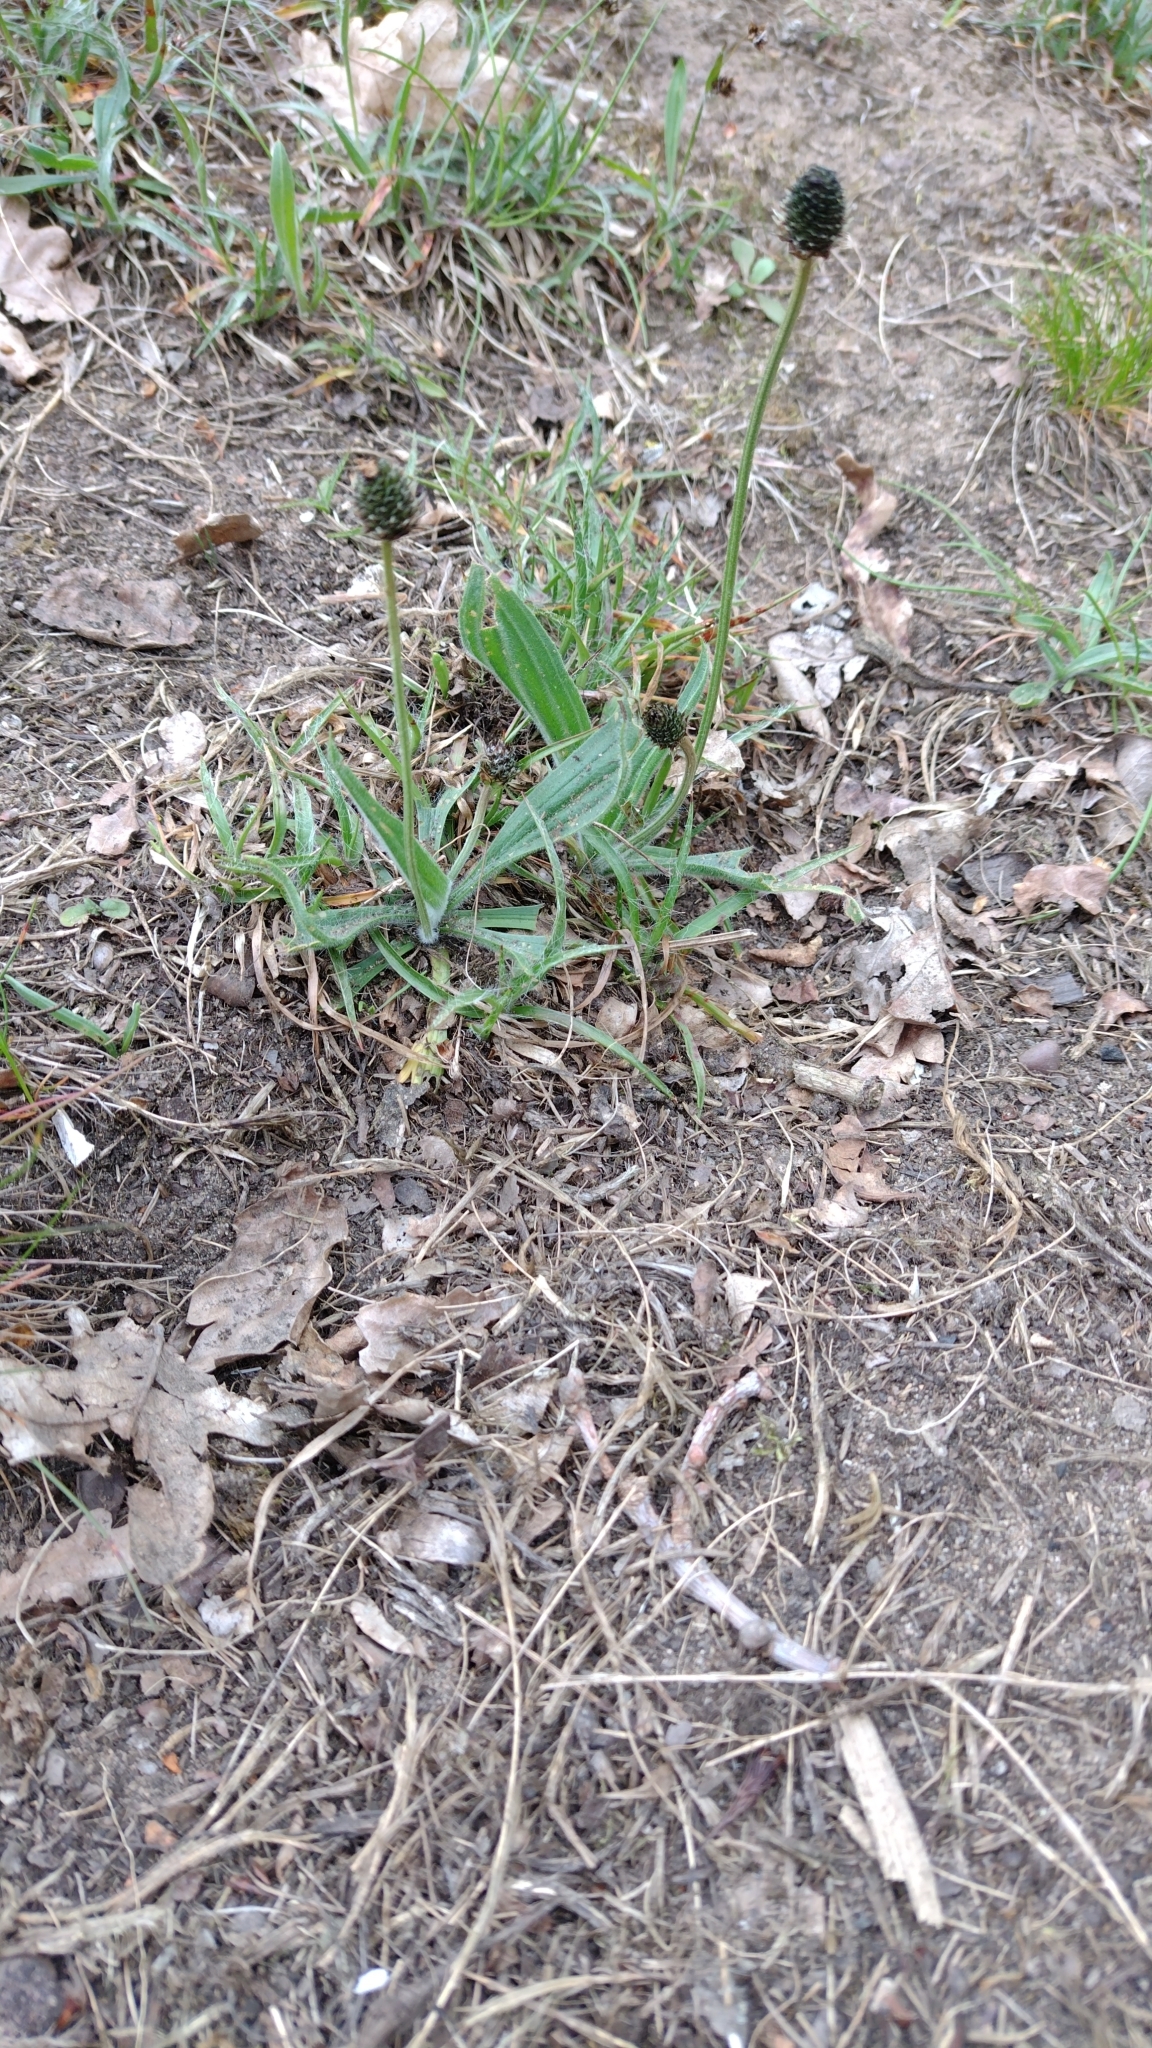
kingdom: Plantae
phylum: Tracheophyta
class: Magnoliopsida
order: Lamiales
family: Plantaginaceae
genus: Plantago
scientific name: Plantago lanceolata
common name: Ribwort plantain
